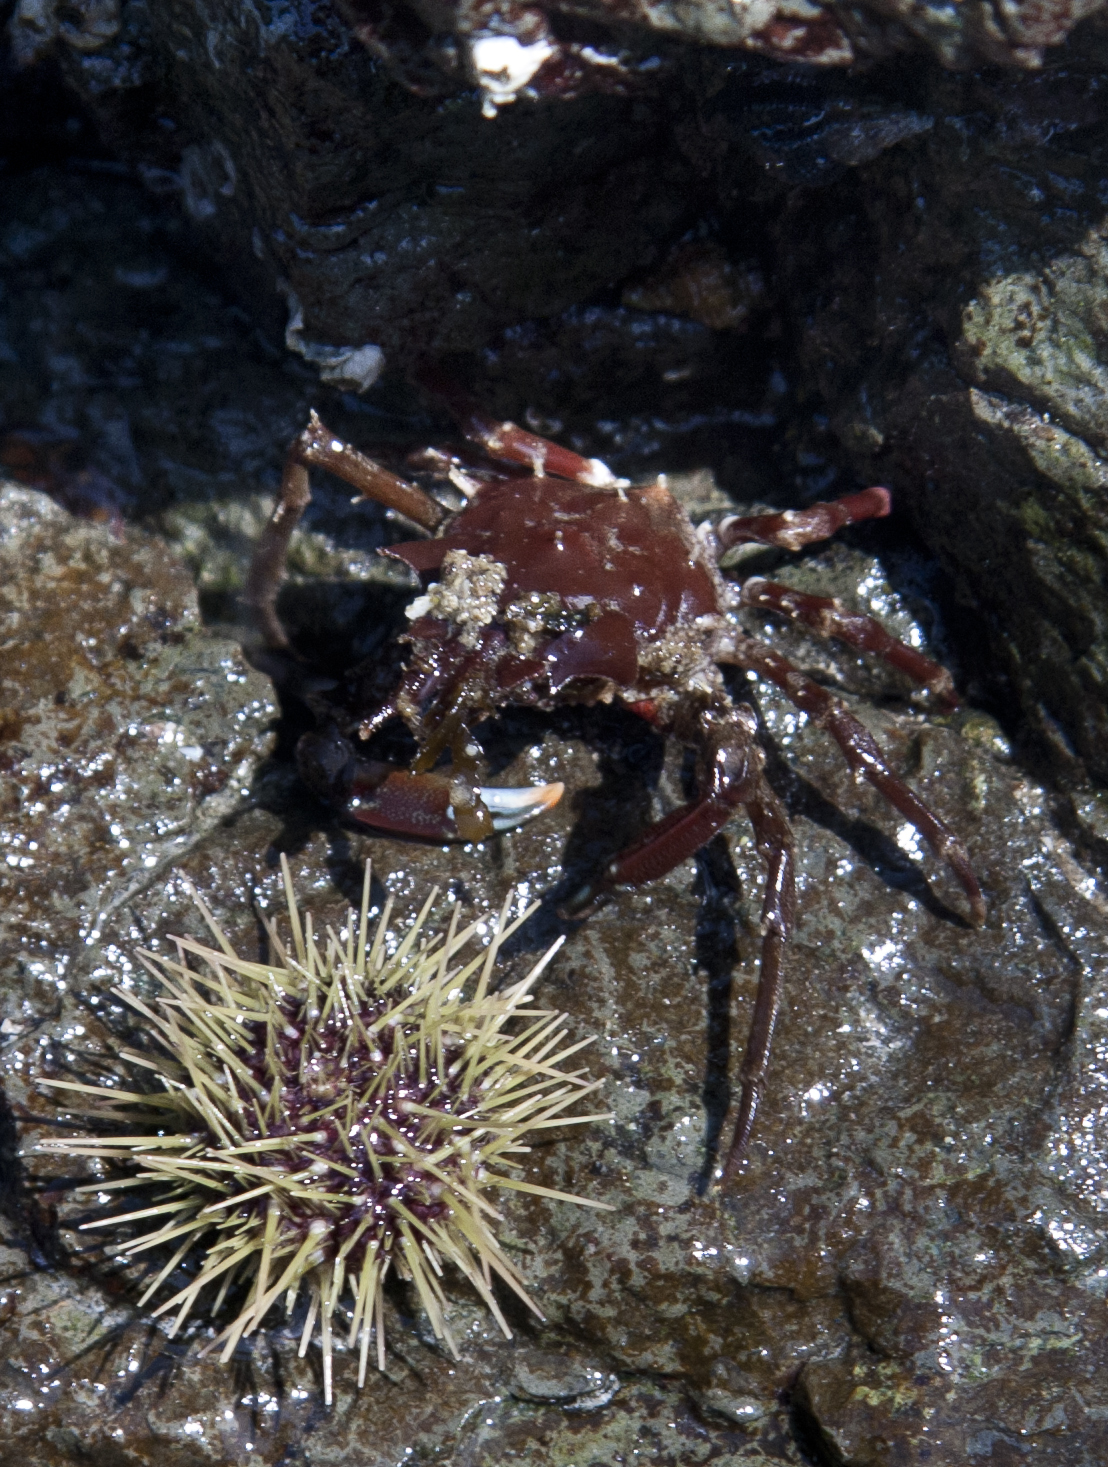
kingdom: Animalia
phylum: Arthropoda
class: Malacostraca
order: Decapoda
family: Epialtidae
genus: Pugettia
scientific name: Pugettia gracilis
